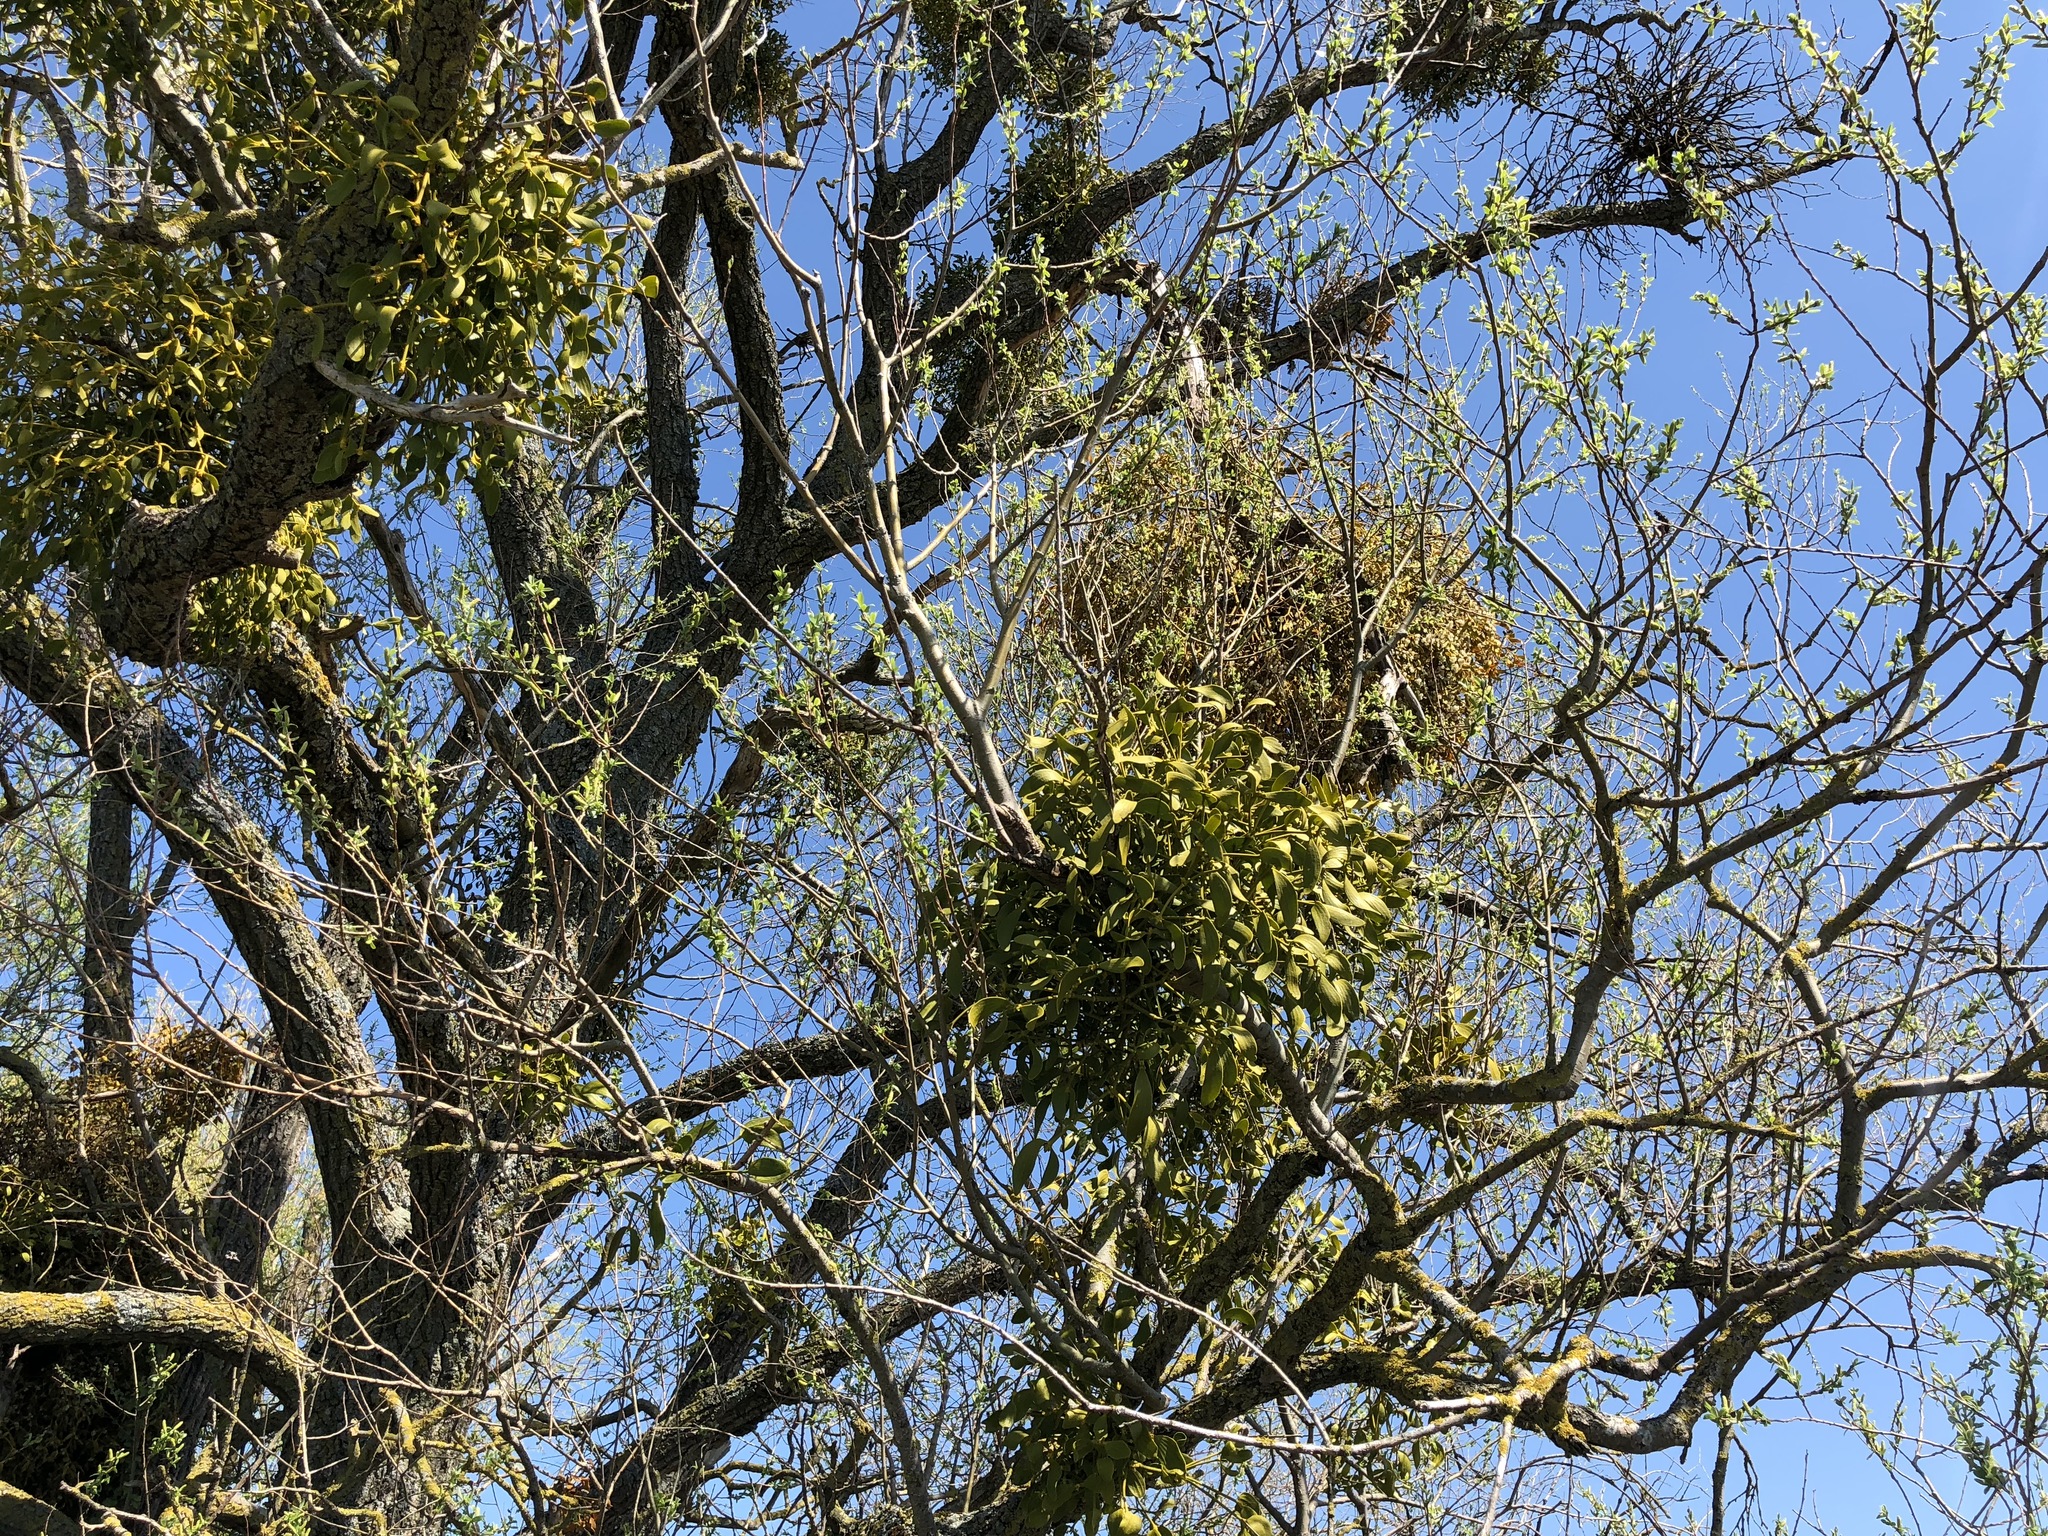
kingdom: Plantae
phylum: Tracheophyta
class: Magnoliopsida
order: Santalales
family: Viscaceae
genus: Viscum
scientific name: Viscum album
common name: Mistletoe
